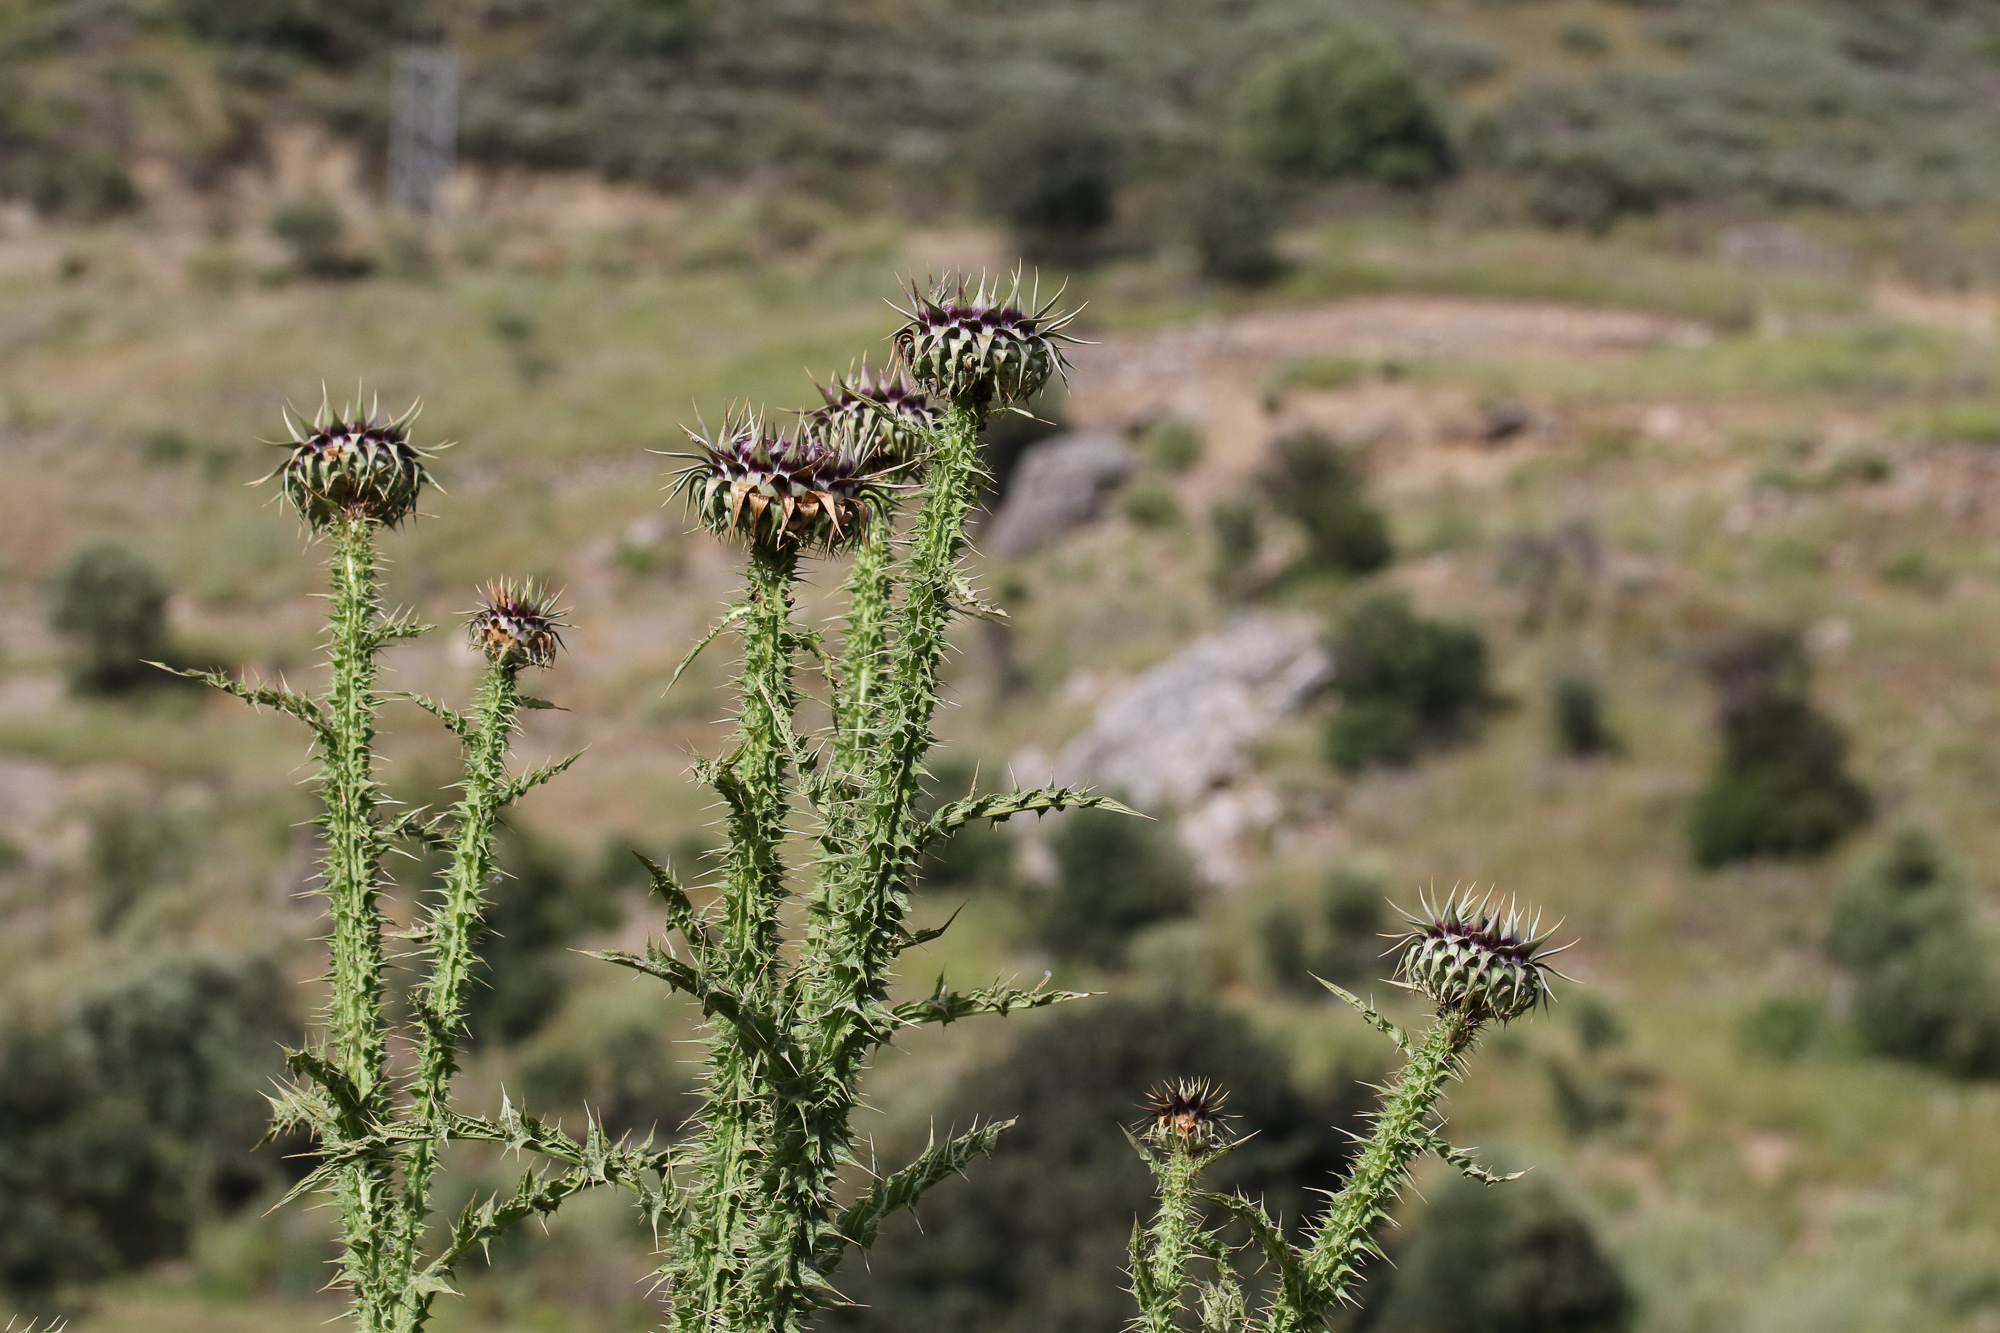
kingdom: Plantae
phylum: Tracheophyta
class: Magnoliopsida
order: Asterales
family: Asteraceae
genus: Onopordum
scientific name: Onopordum bracteatum
